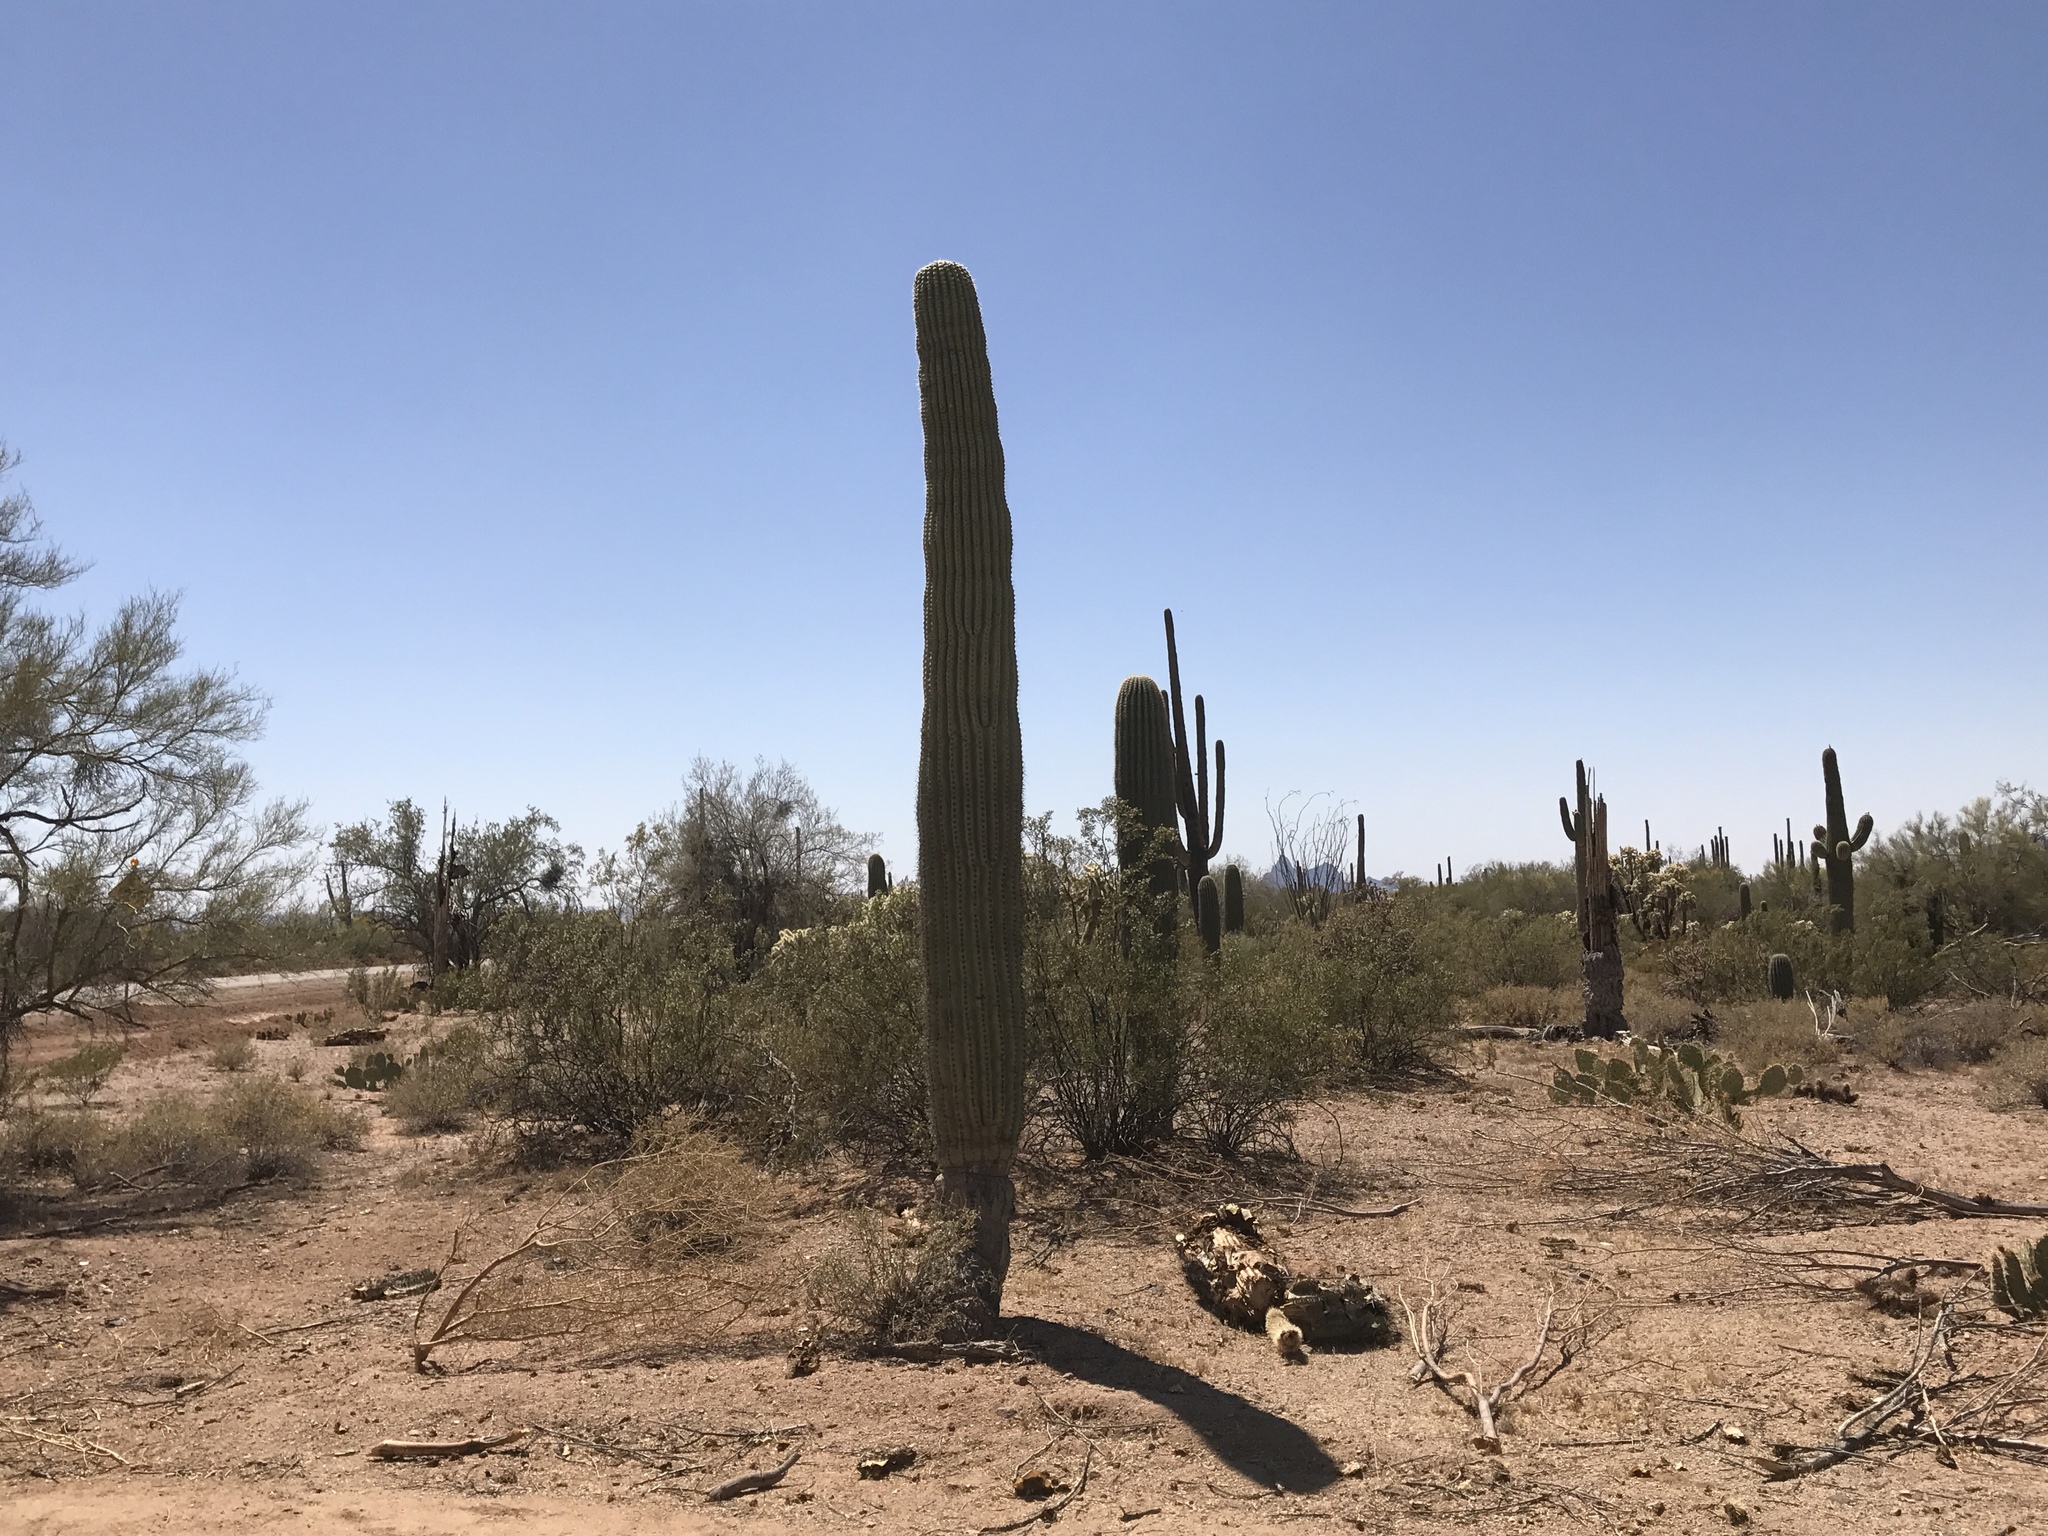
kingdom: Plantae
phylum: Tracheophyta
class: Magnoliopsida
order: Caryophyllales
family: Cactaceae
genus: Carnegiea
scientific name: Carnegiea gigantea
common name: Saguaro
